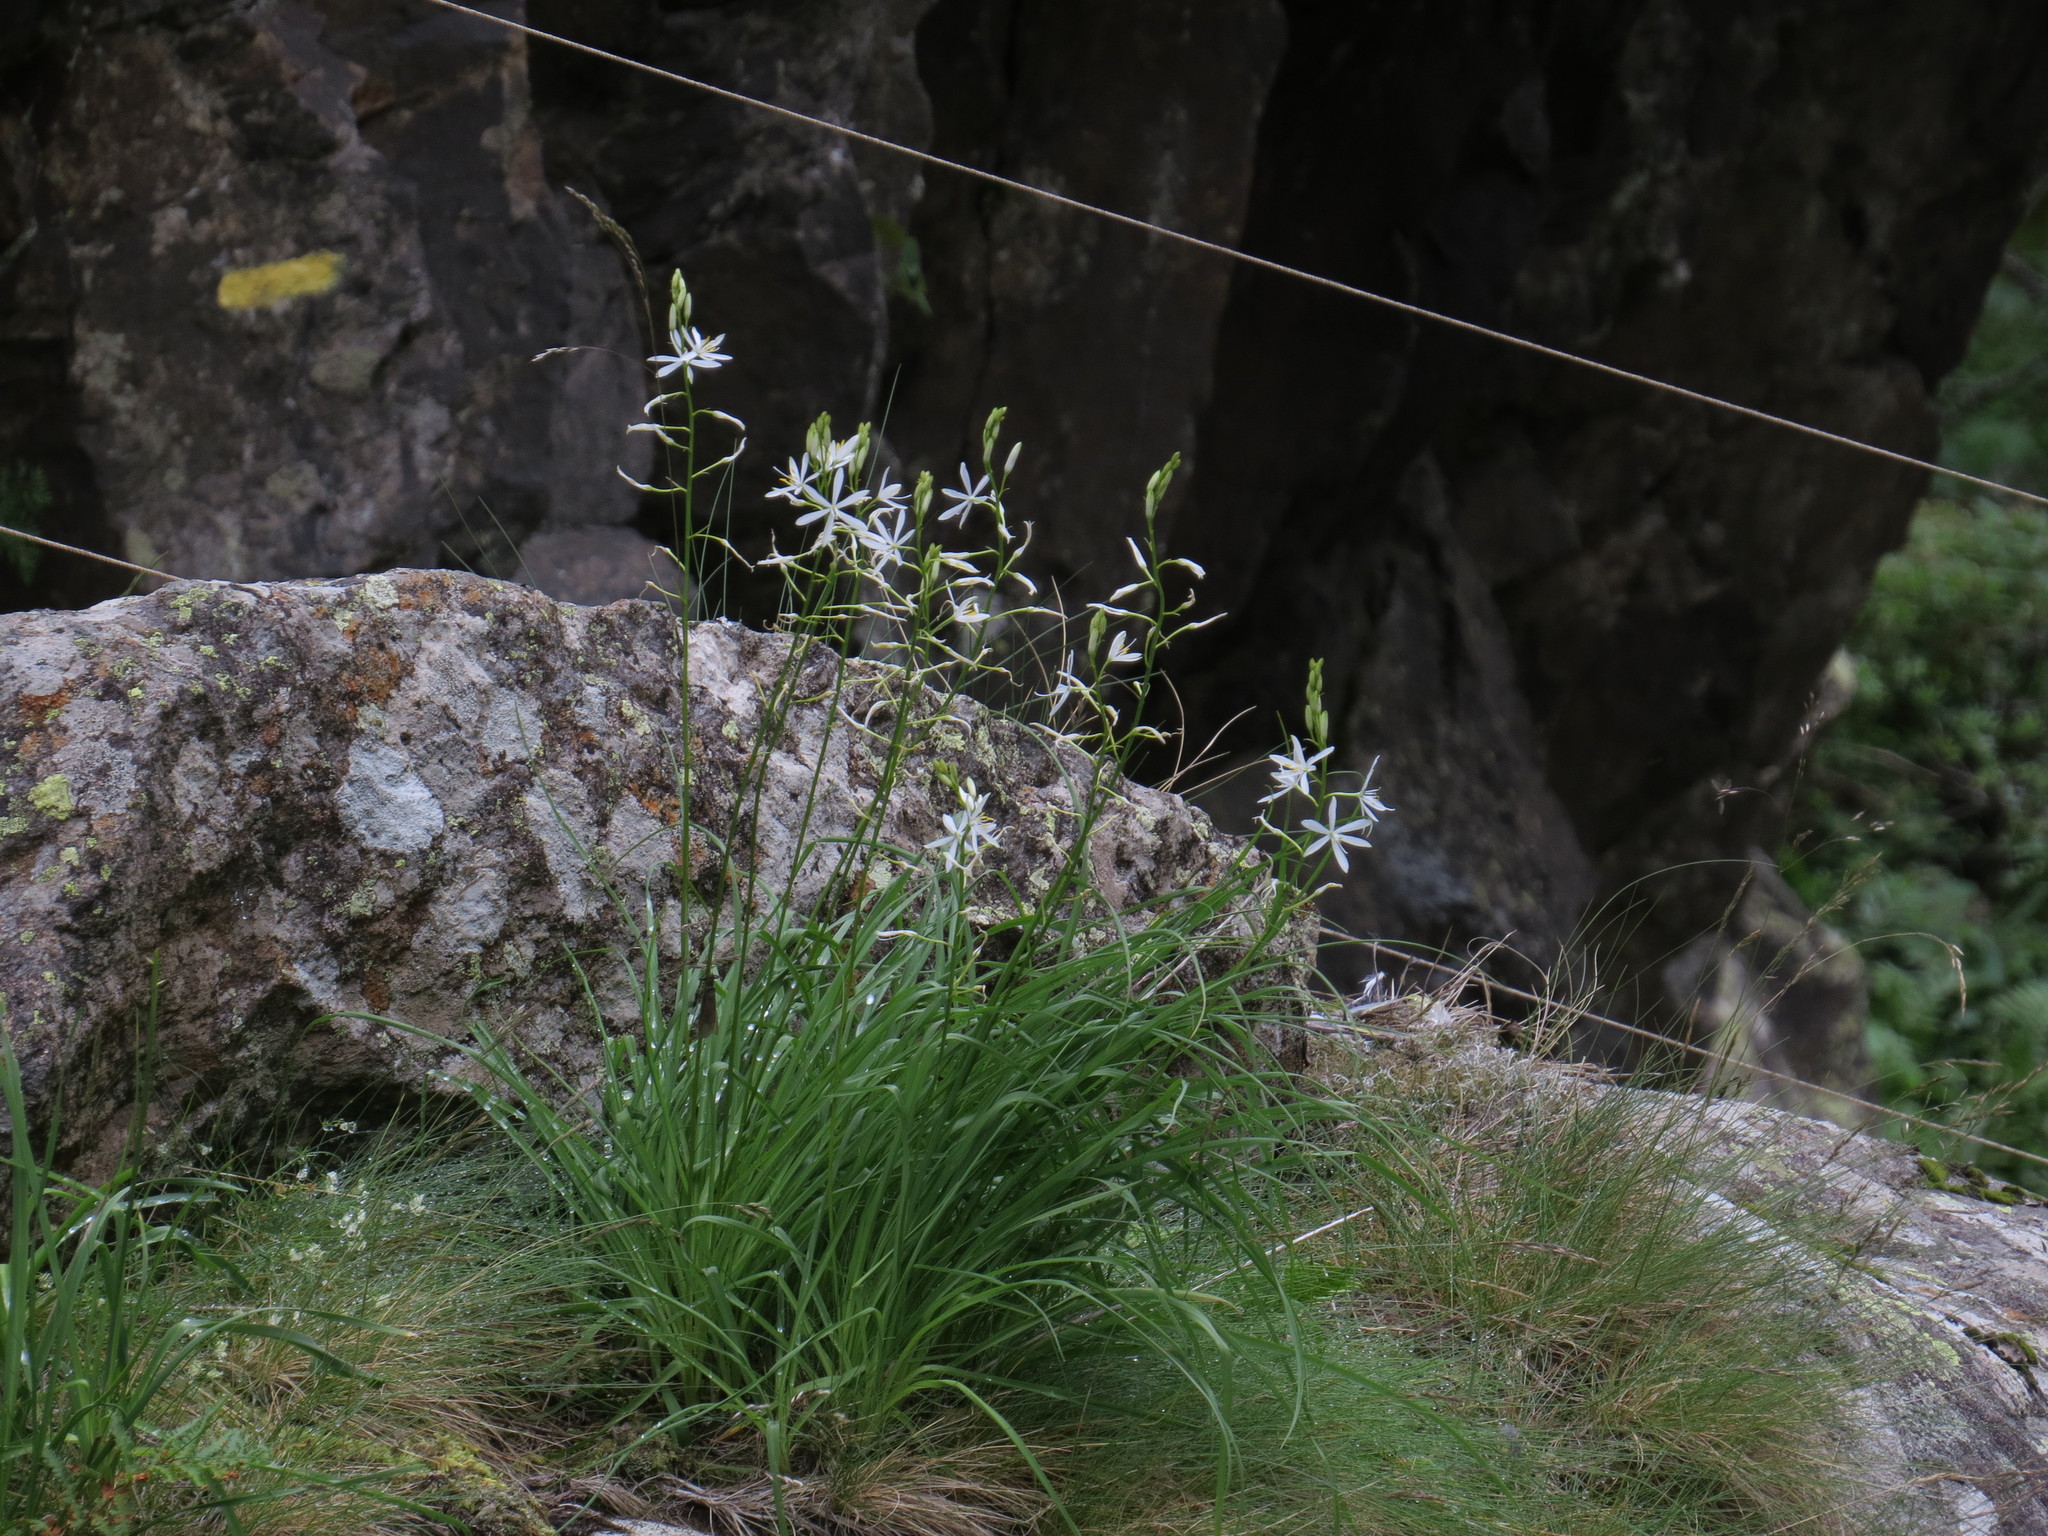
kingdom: Plantae
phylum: Tracheophyta
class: Liliopsida
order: Asparagales
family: Asparagaceae
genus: Anthericum
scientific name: Anthericum liliago
